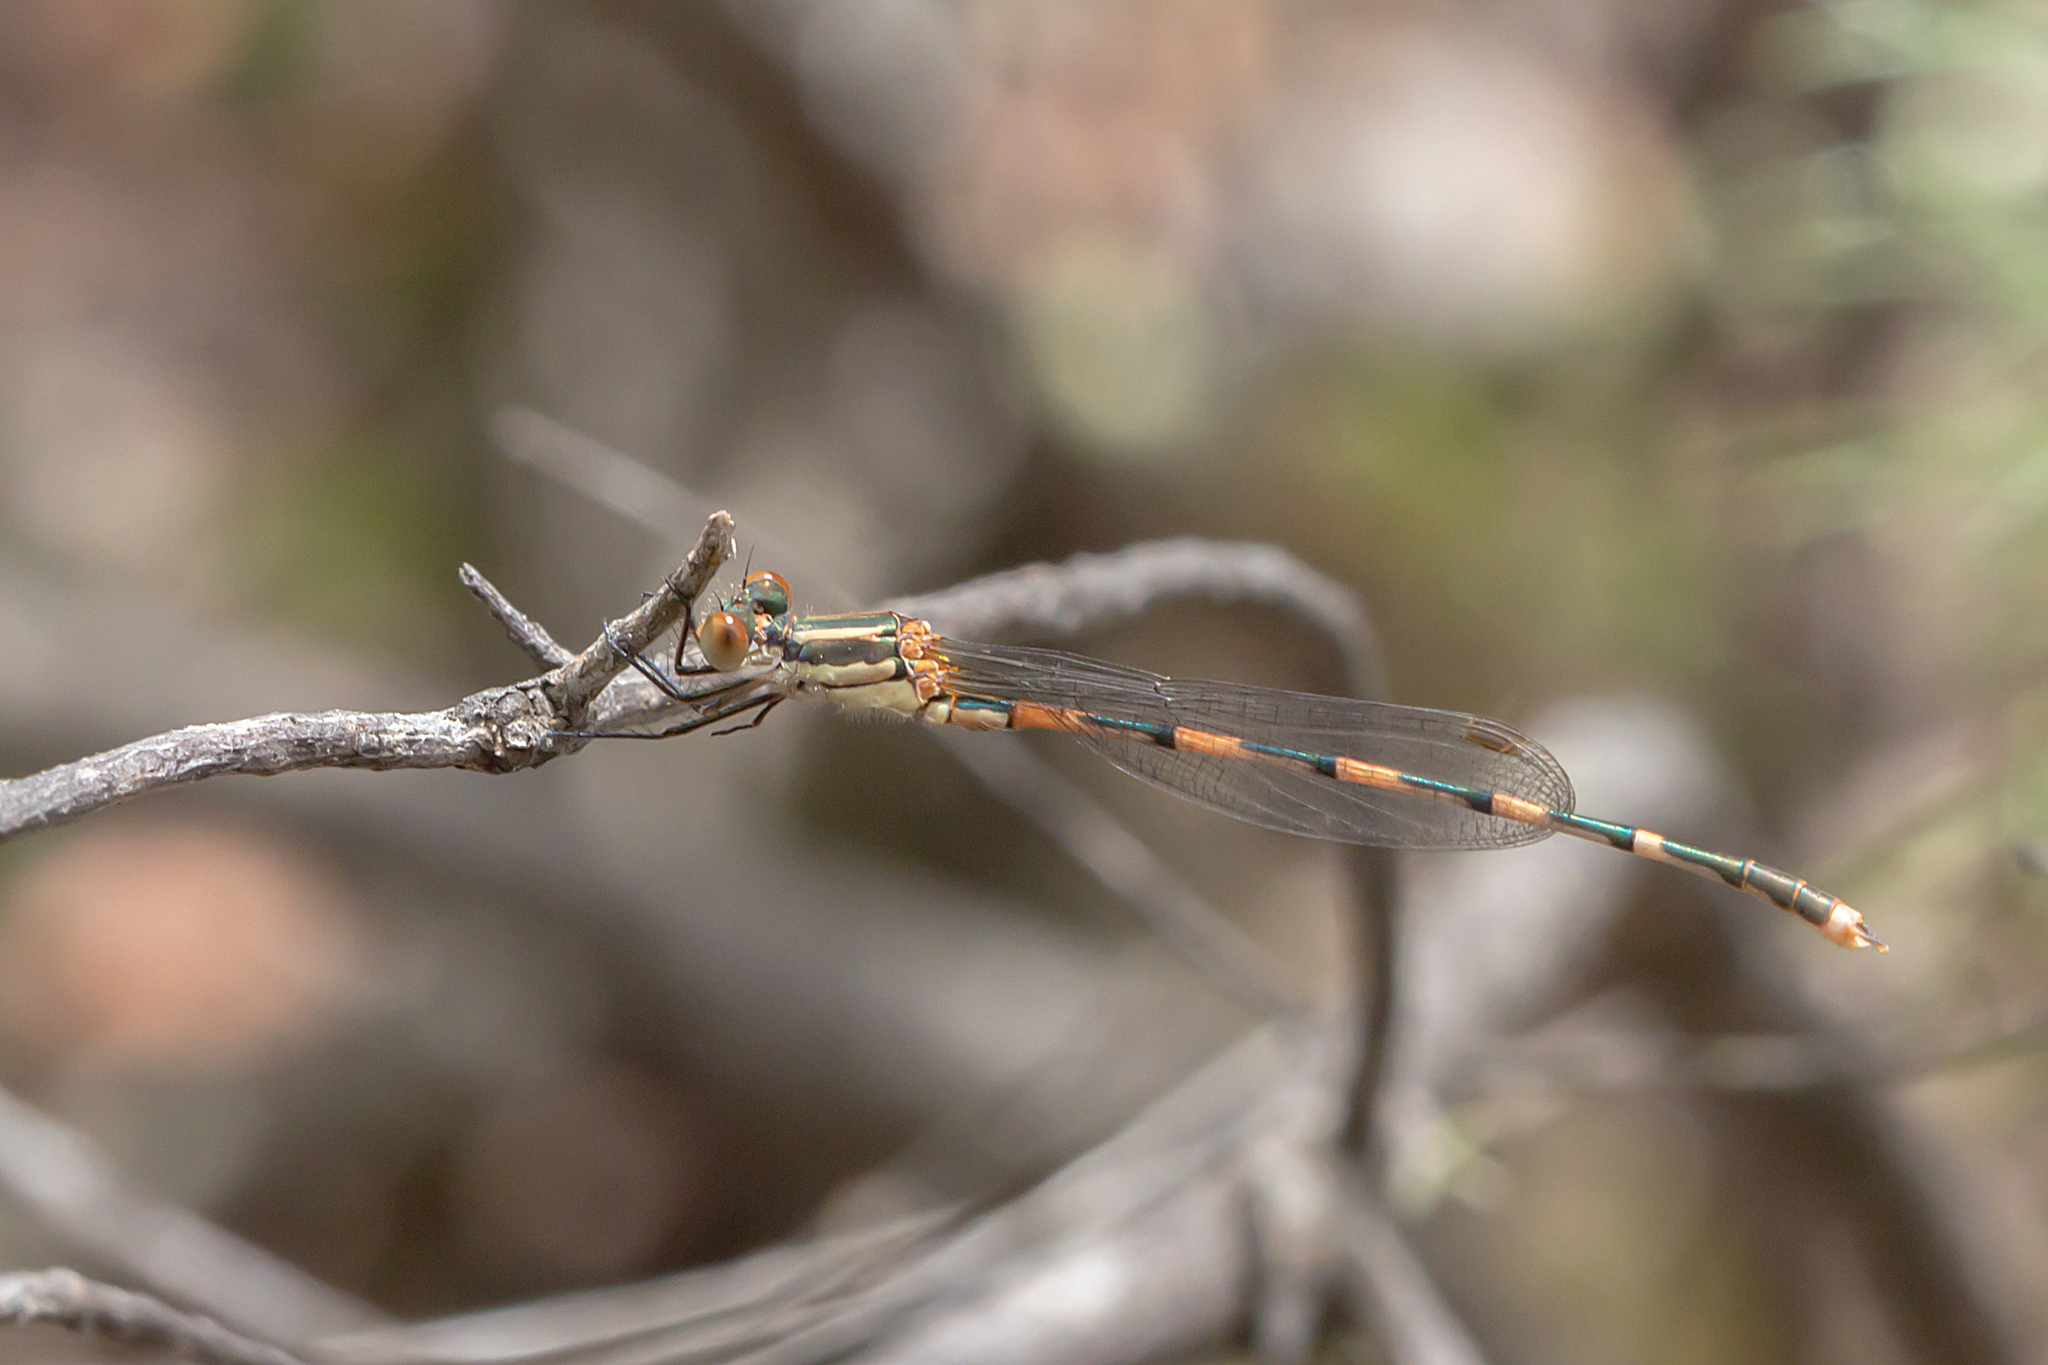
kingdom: Animalia
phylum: Arthropoda
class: Insecta
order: Odonata
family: Lestidae
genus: Austrolestes
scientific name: Austrolestes leda
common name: Wandering ringtail
